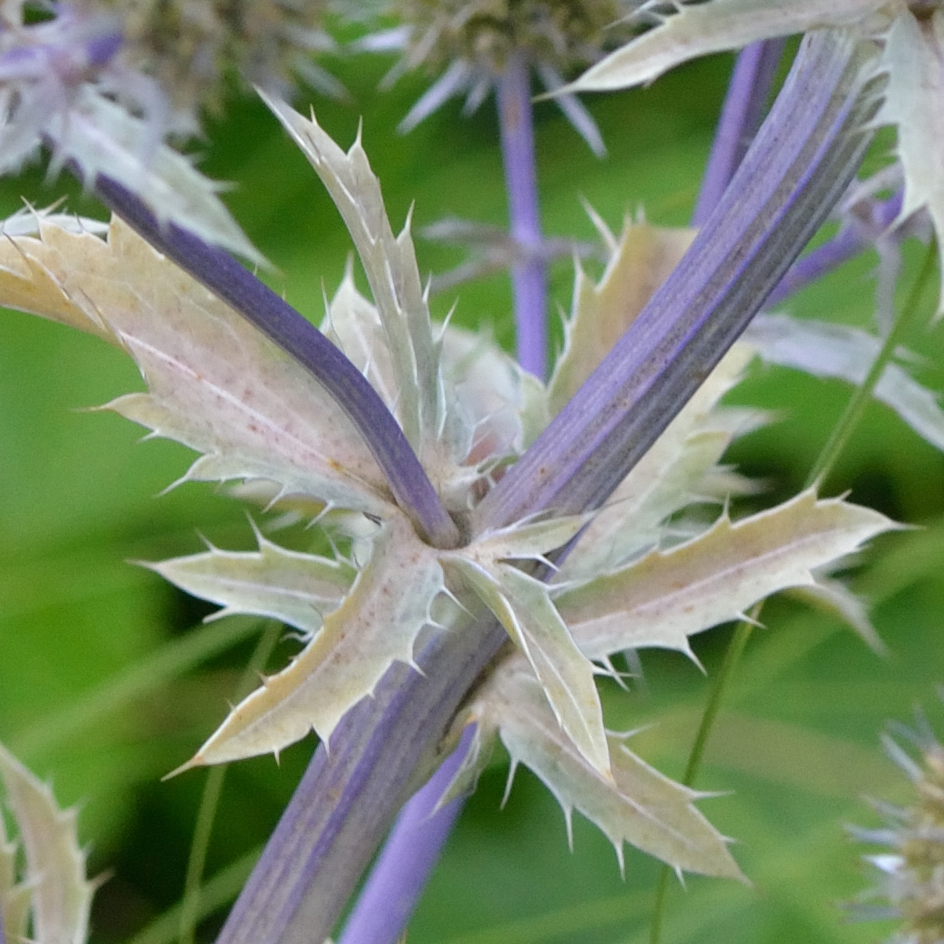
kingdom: Plantae
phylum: Tracheophyta
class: Magnoliopsida
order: Apiales
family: Apiaceae
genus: Eryngium
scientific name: Eryngium planum
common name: Blue eryngo
